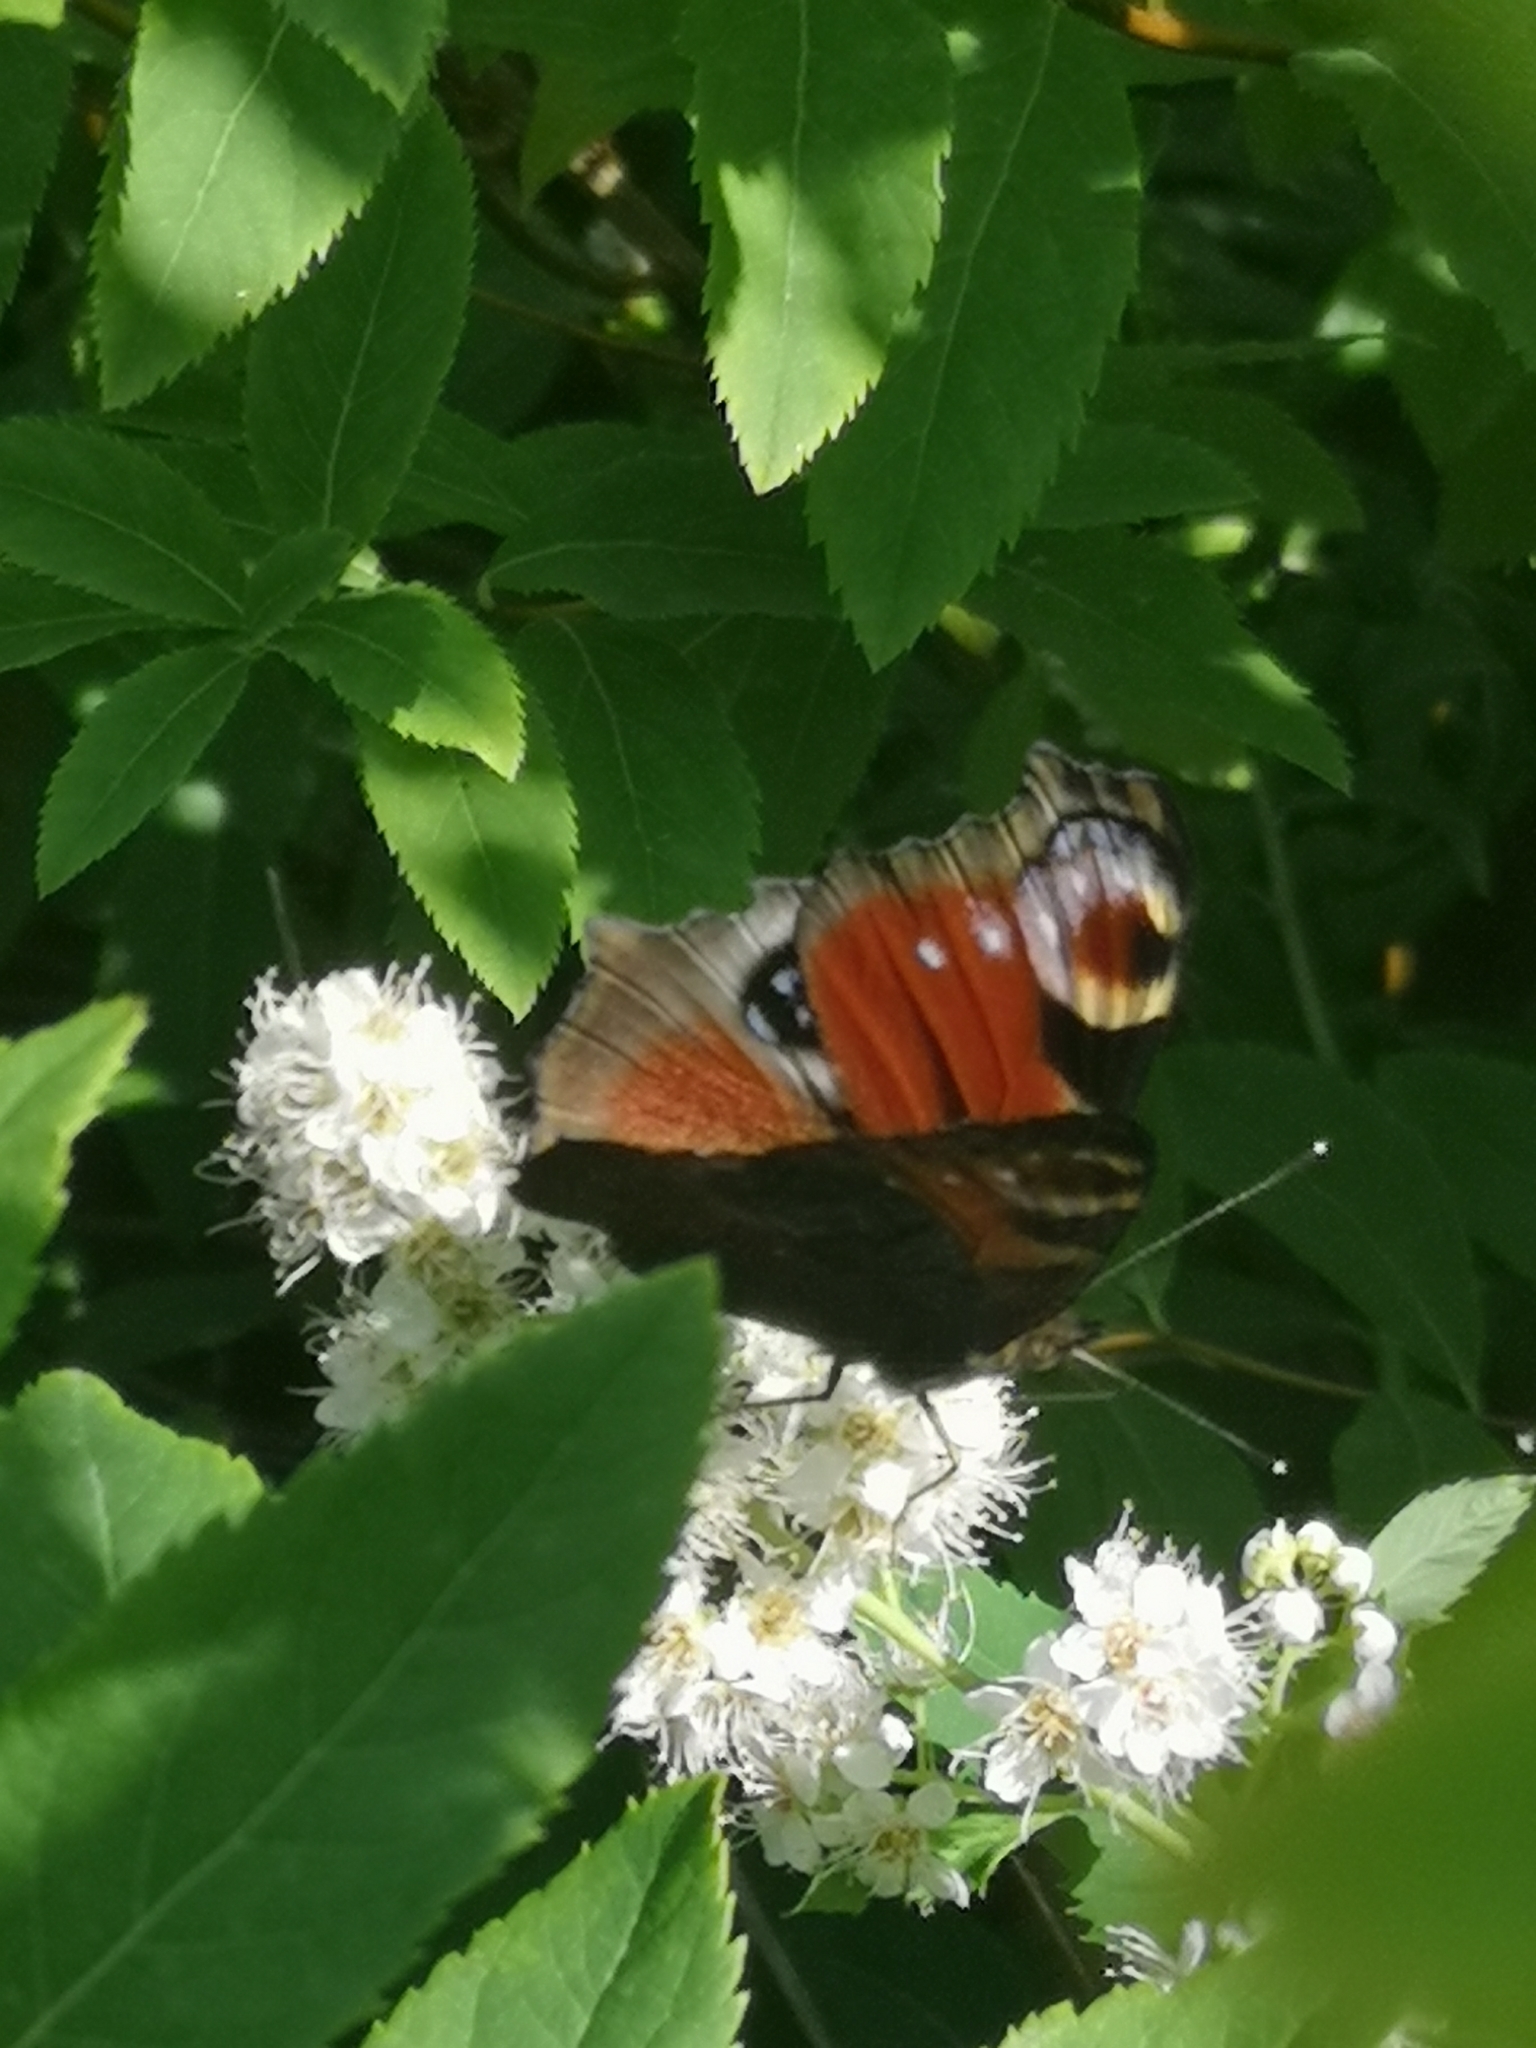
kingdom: Animalia
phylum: Arthropoda
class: Insecta
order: Lepidoptera
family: Nymphalidae
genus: Aglais
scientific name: Aglais io
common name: Peacock
